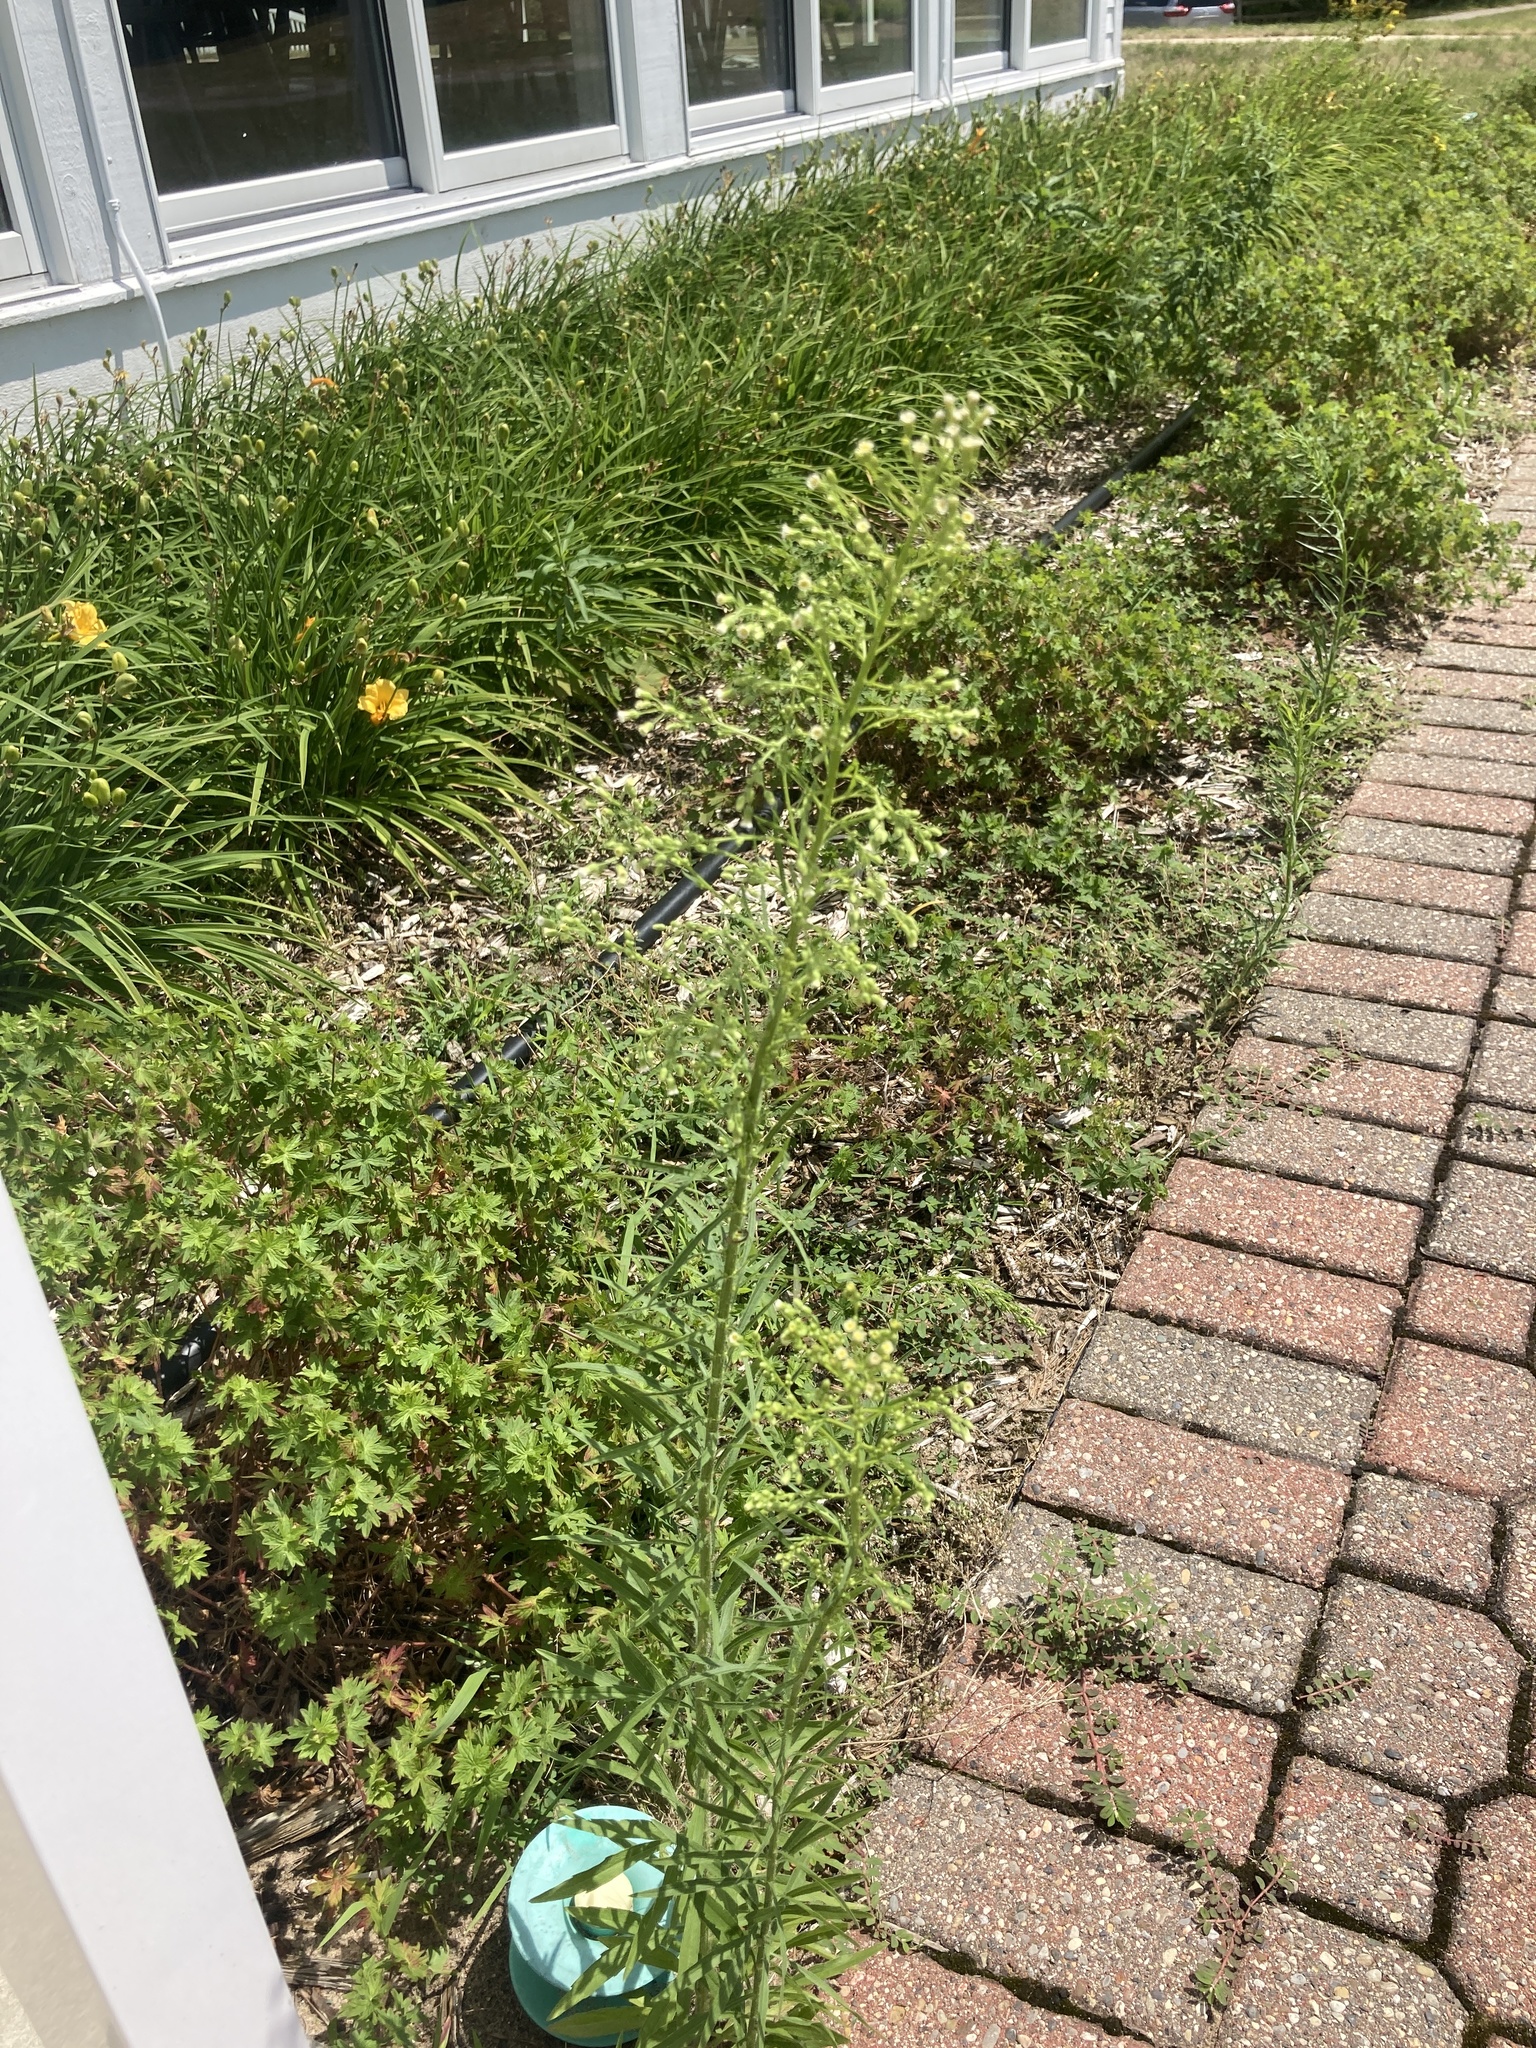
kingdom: Plantae
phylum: Tracheophyta
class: Magnoliopsida
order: Asterales
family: Asteraceae
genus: Erigeron
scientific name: Erigeron canadensis
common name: Canadian fleabane
